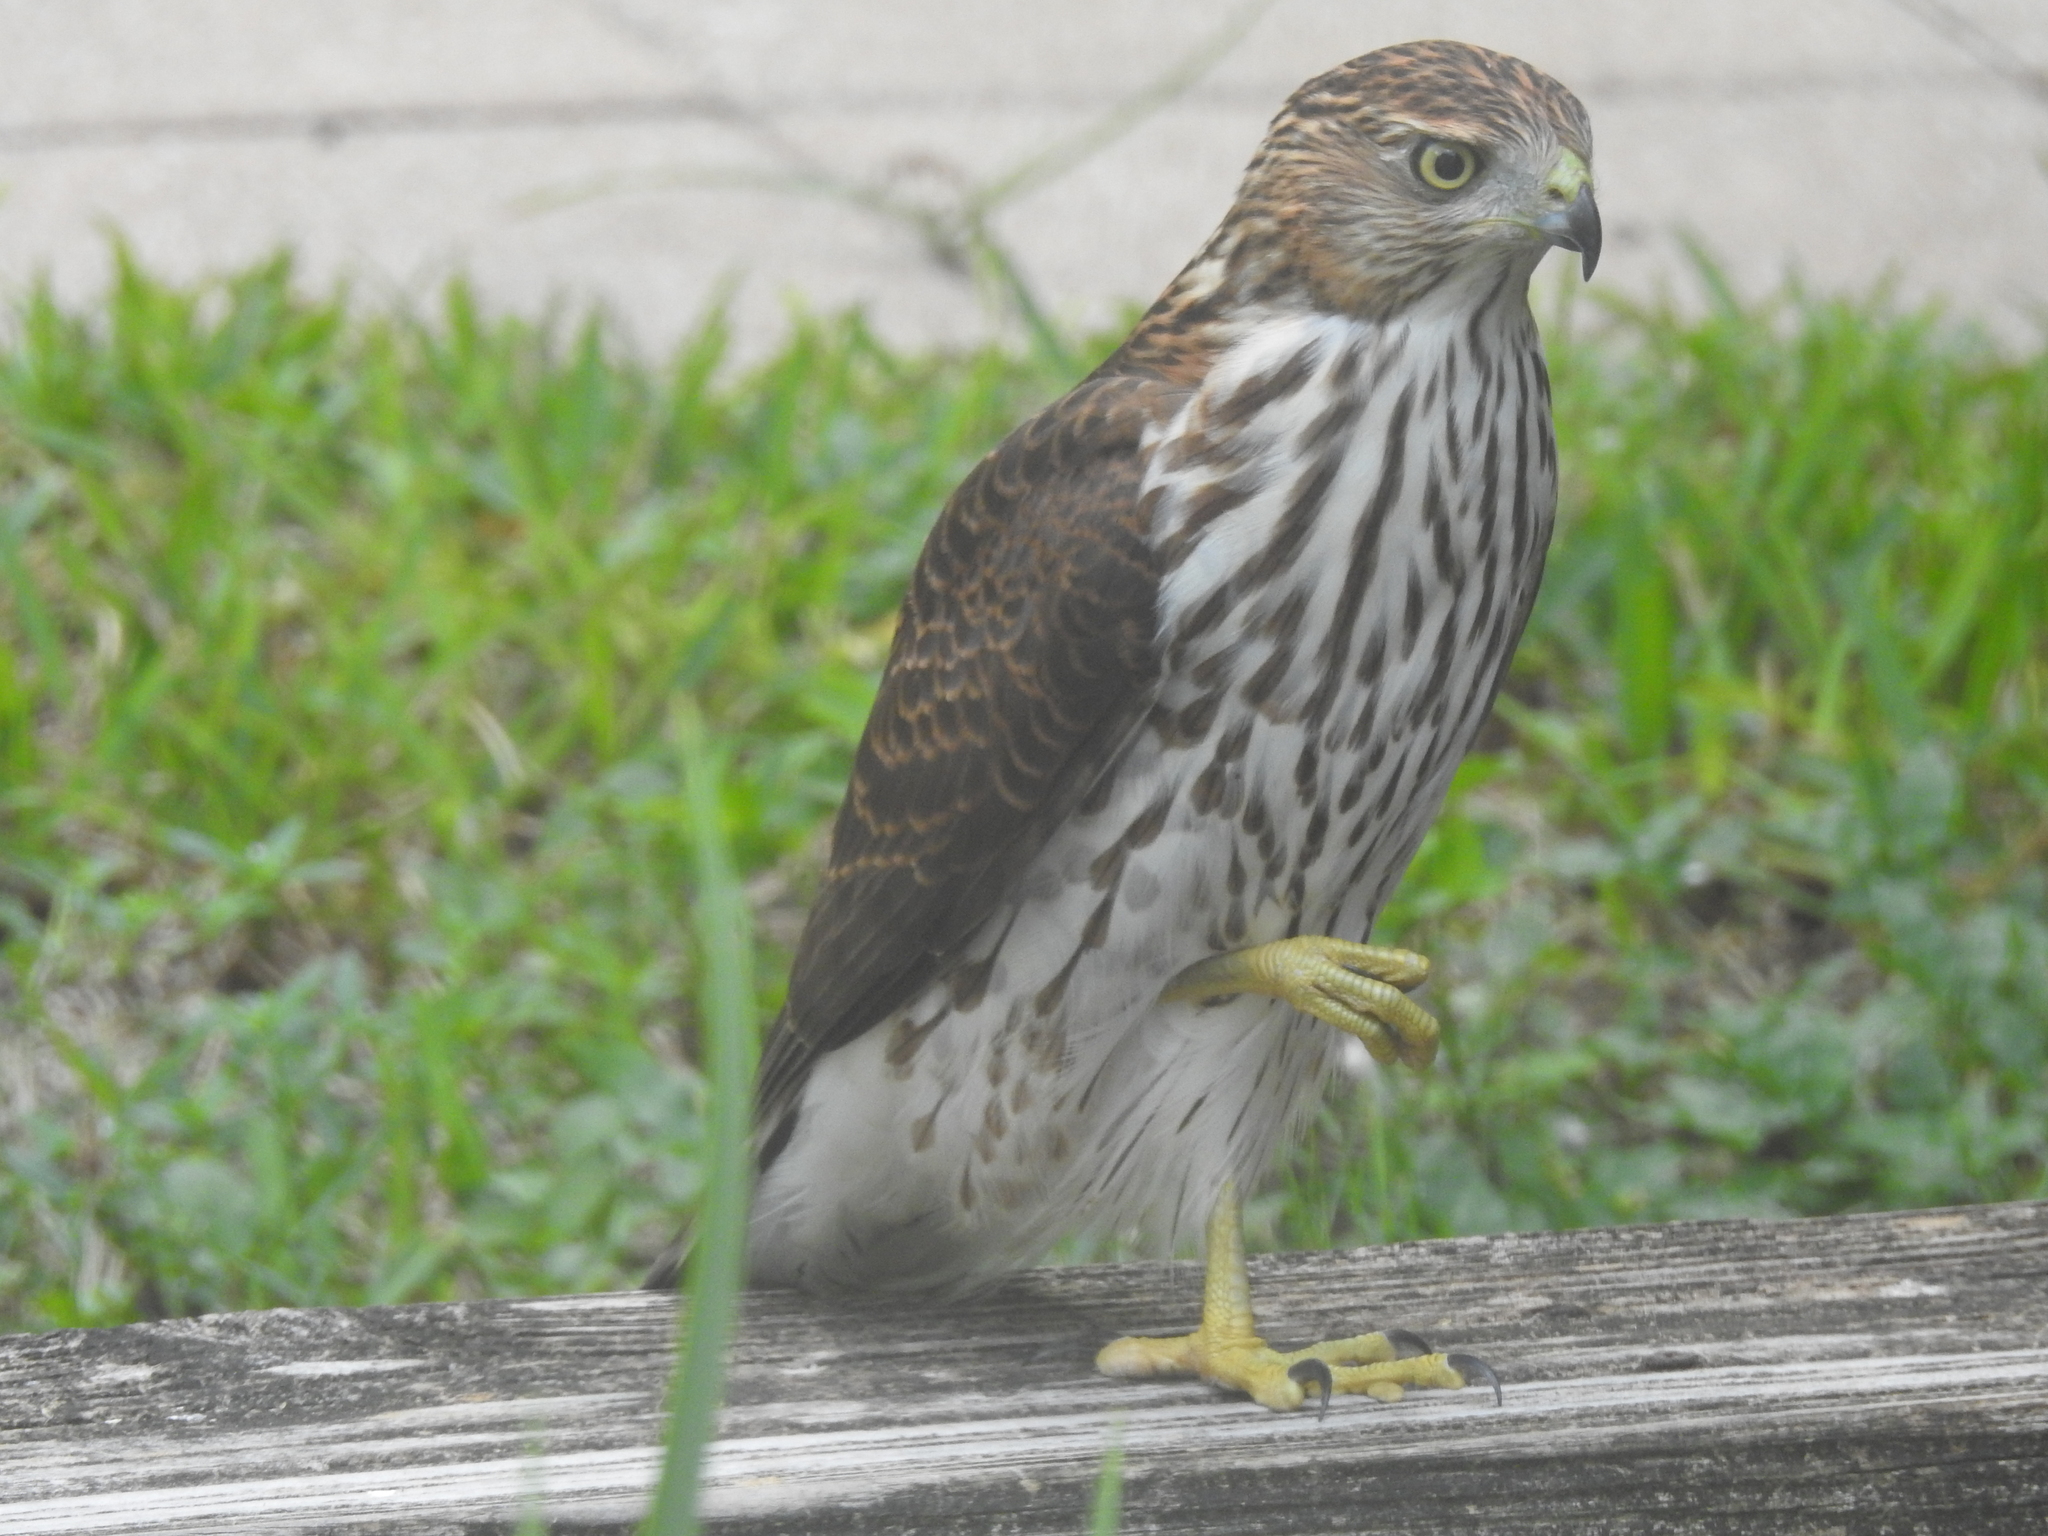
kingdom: Animalia
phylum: Chordata
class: Aves
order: Accipitriformes
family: Accipitridae
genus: Accipiter
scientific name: Accipiter cooperii
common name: Cooper's hawk
